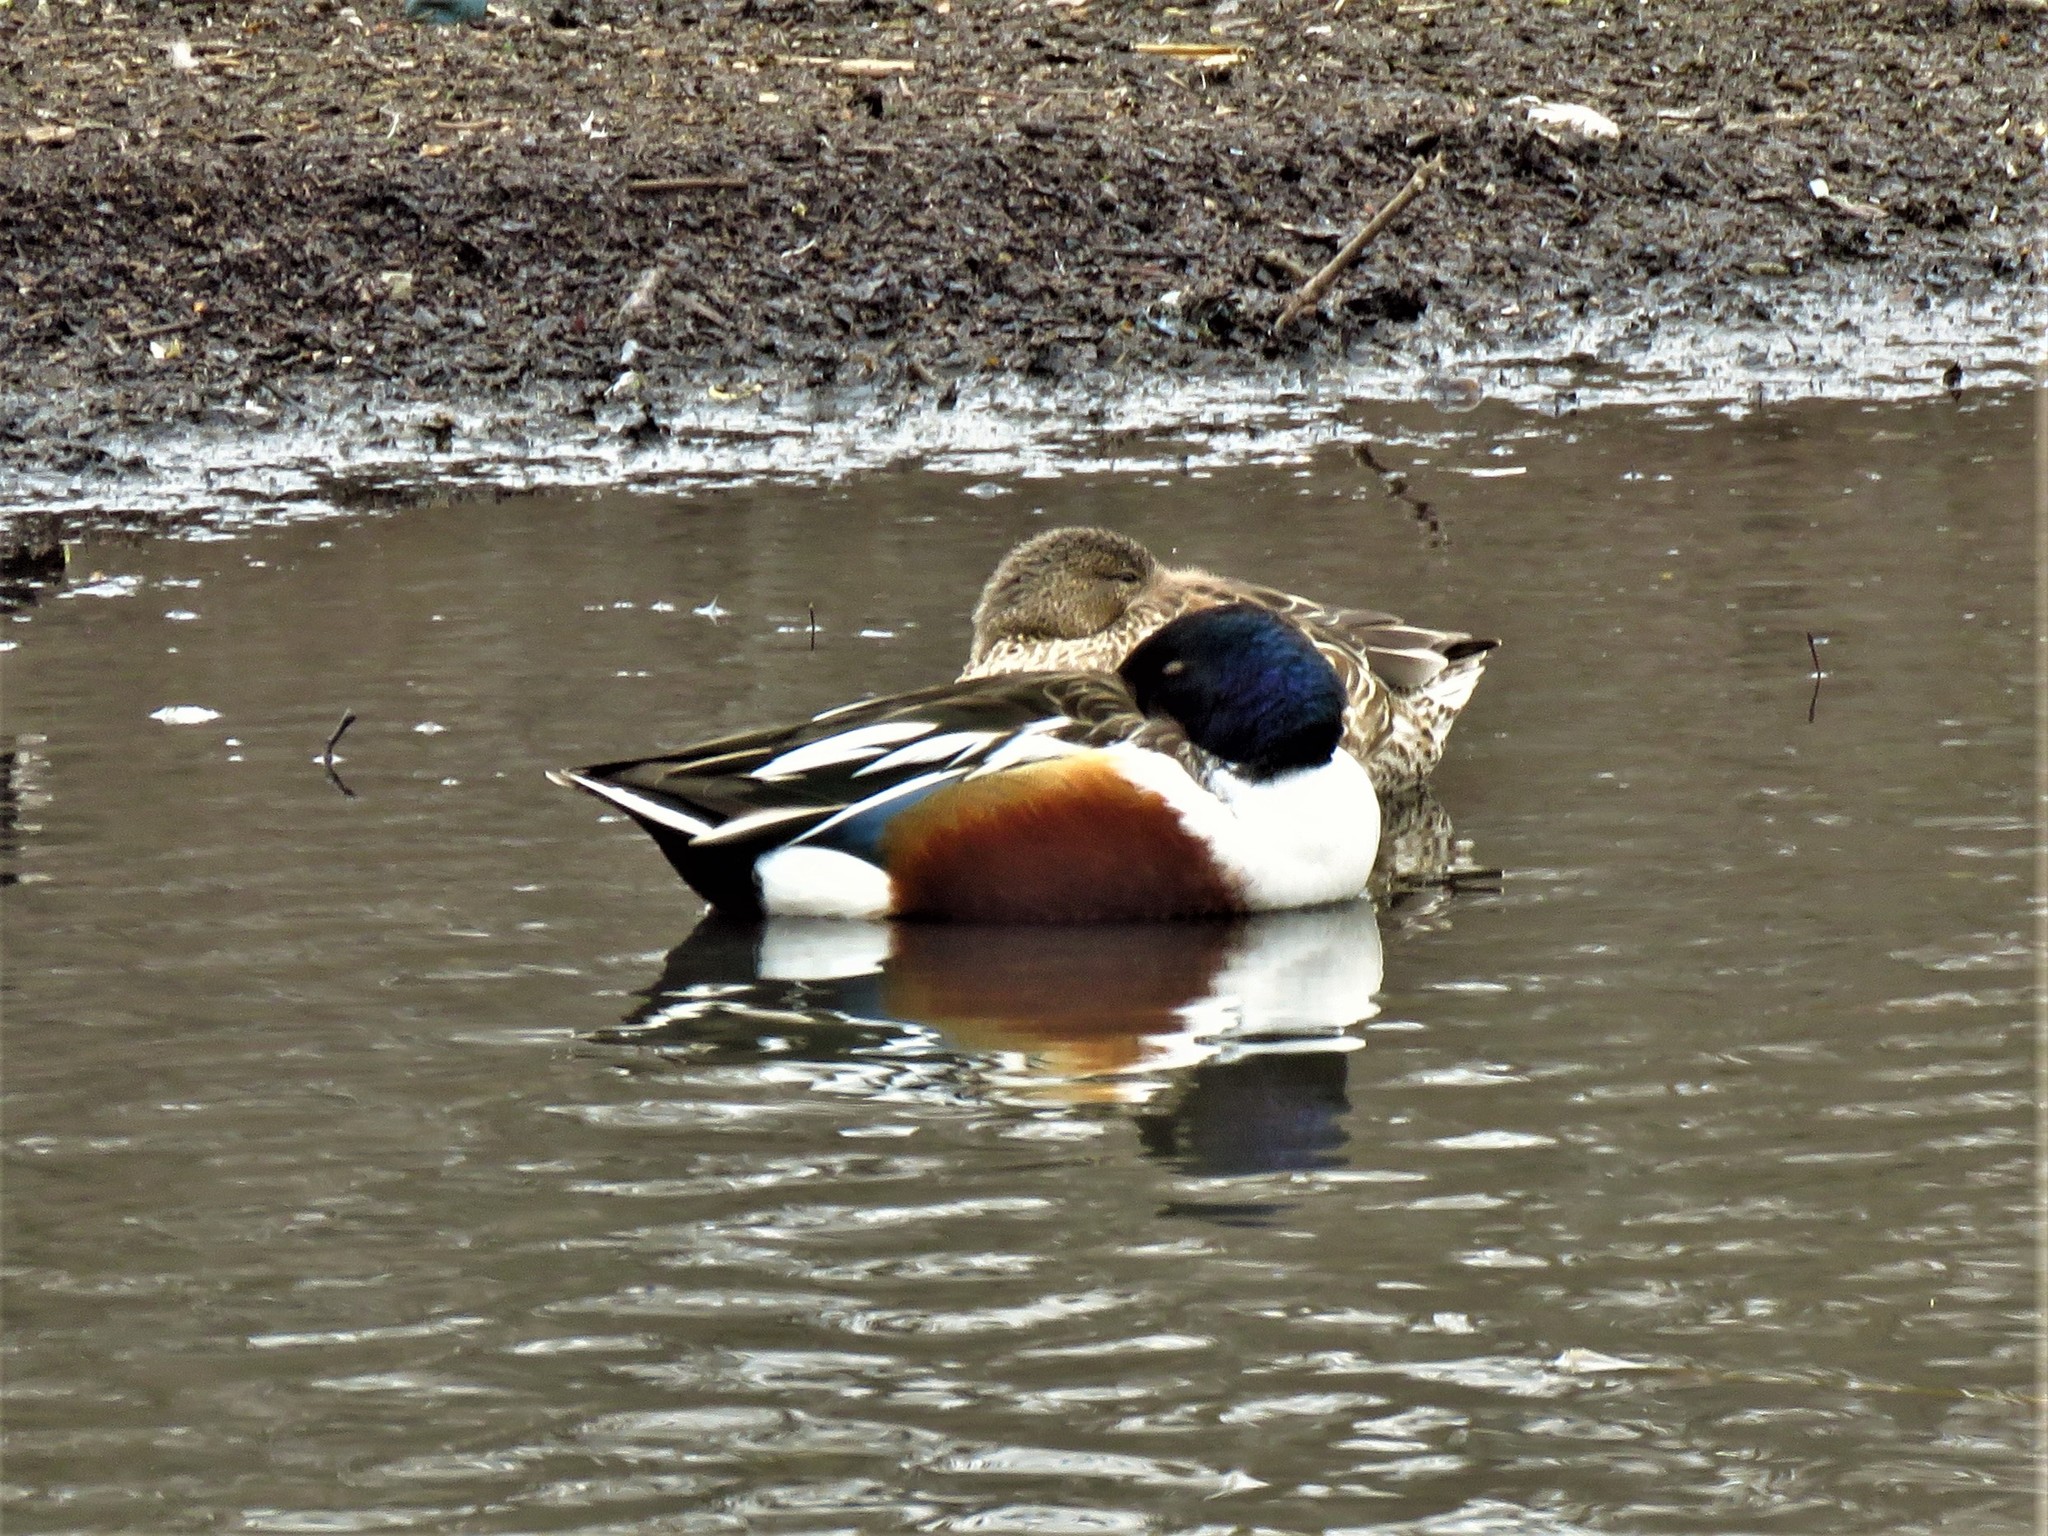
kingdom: Animalia
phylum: Chordata
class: Aves
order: Anseriformes
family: Anatidae
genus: Spatula
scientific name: Spatula clypeata
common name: Northern shoveler
